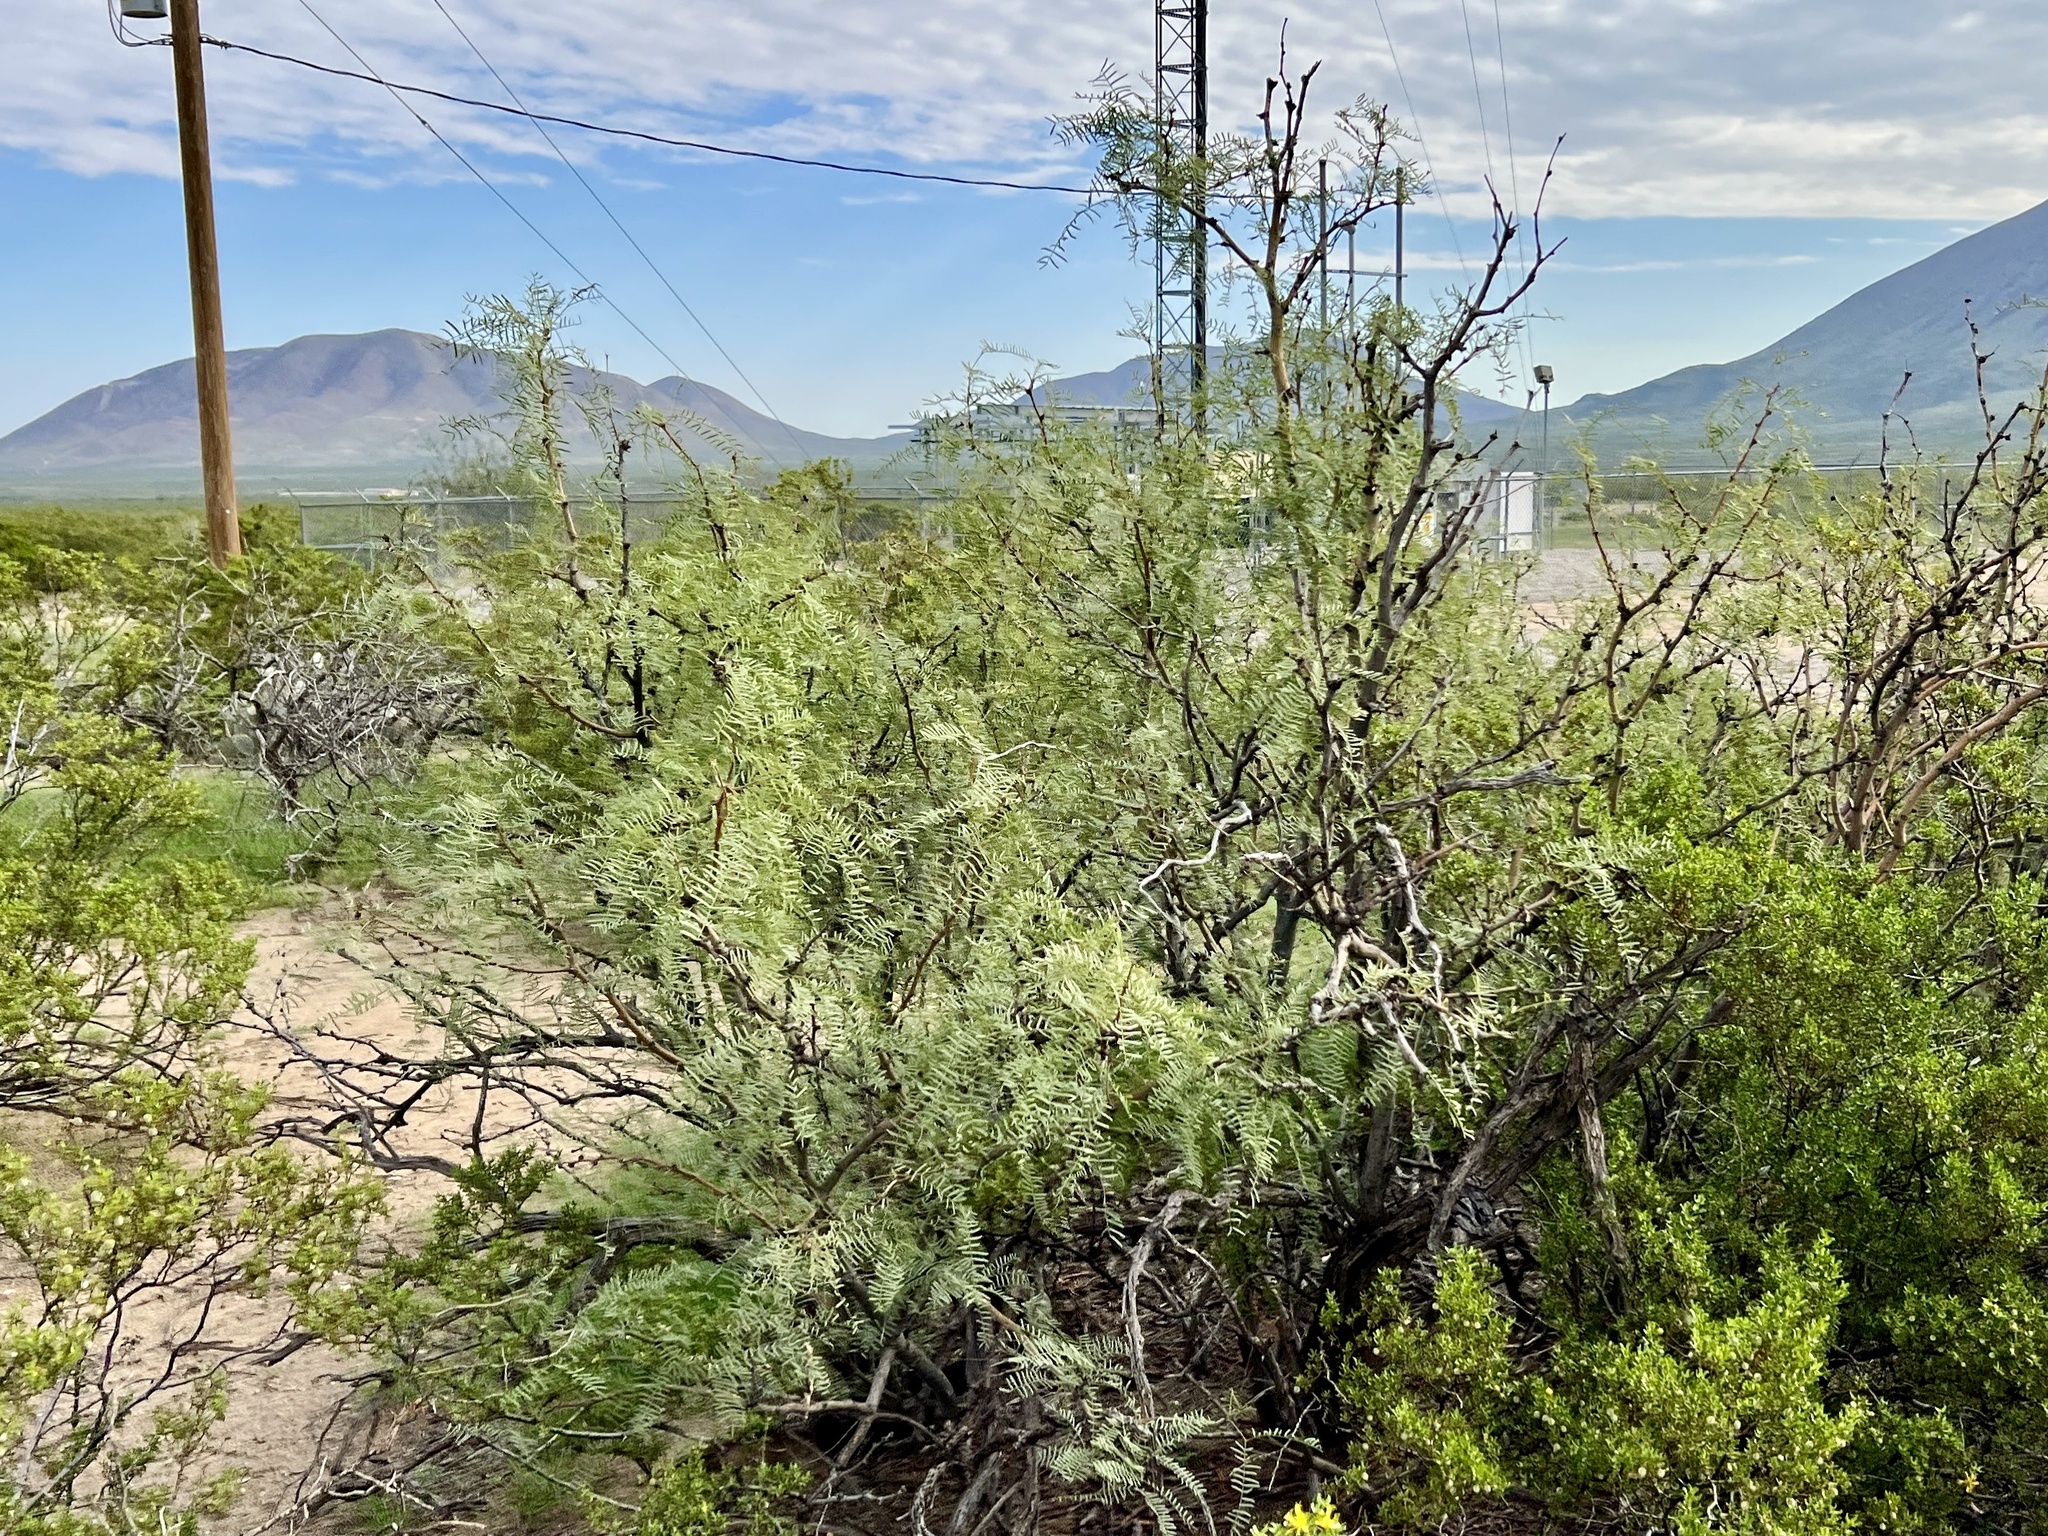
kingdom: Plantae
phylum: Tracheophyta
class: Magnoliopsida
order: Fabales
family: Fabaceae
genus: Prosopis
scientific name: Prosopis glandulosa
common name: Honey mesquite
